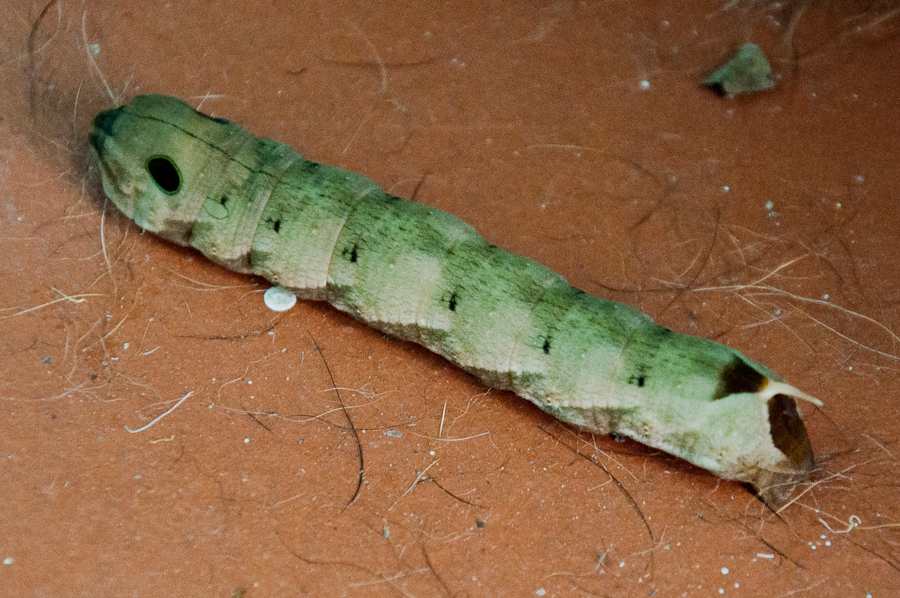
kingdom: Animalia
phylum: Arthropoda
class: Insecta
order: Lepidoptera
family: Sphingidae
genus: Hippotion
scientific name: Hippotion eson
